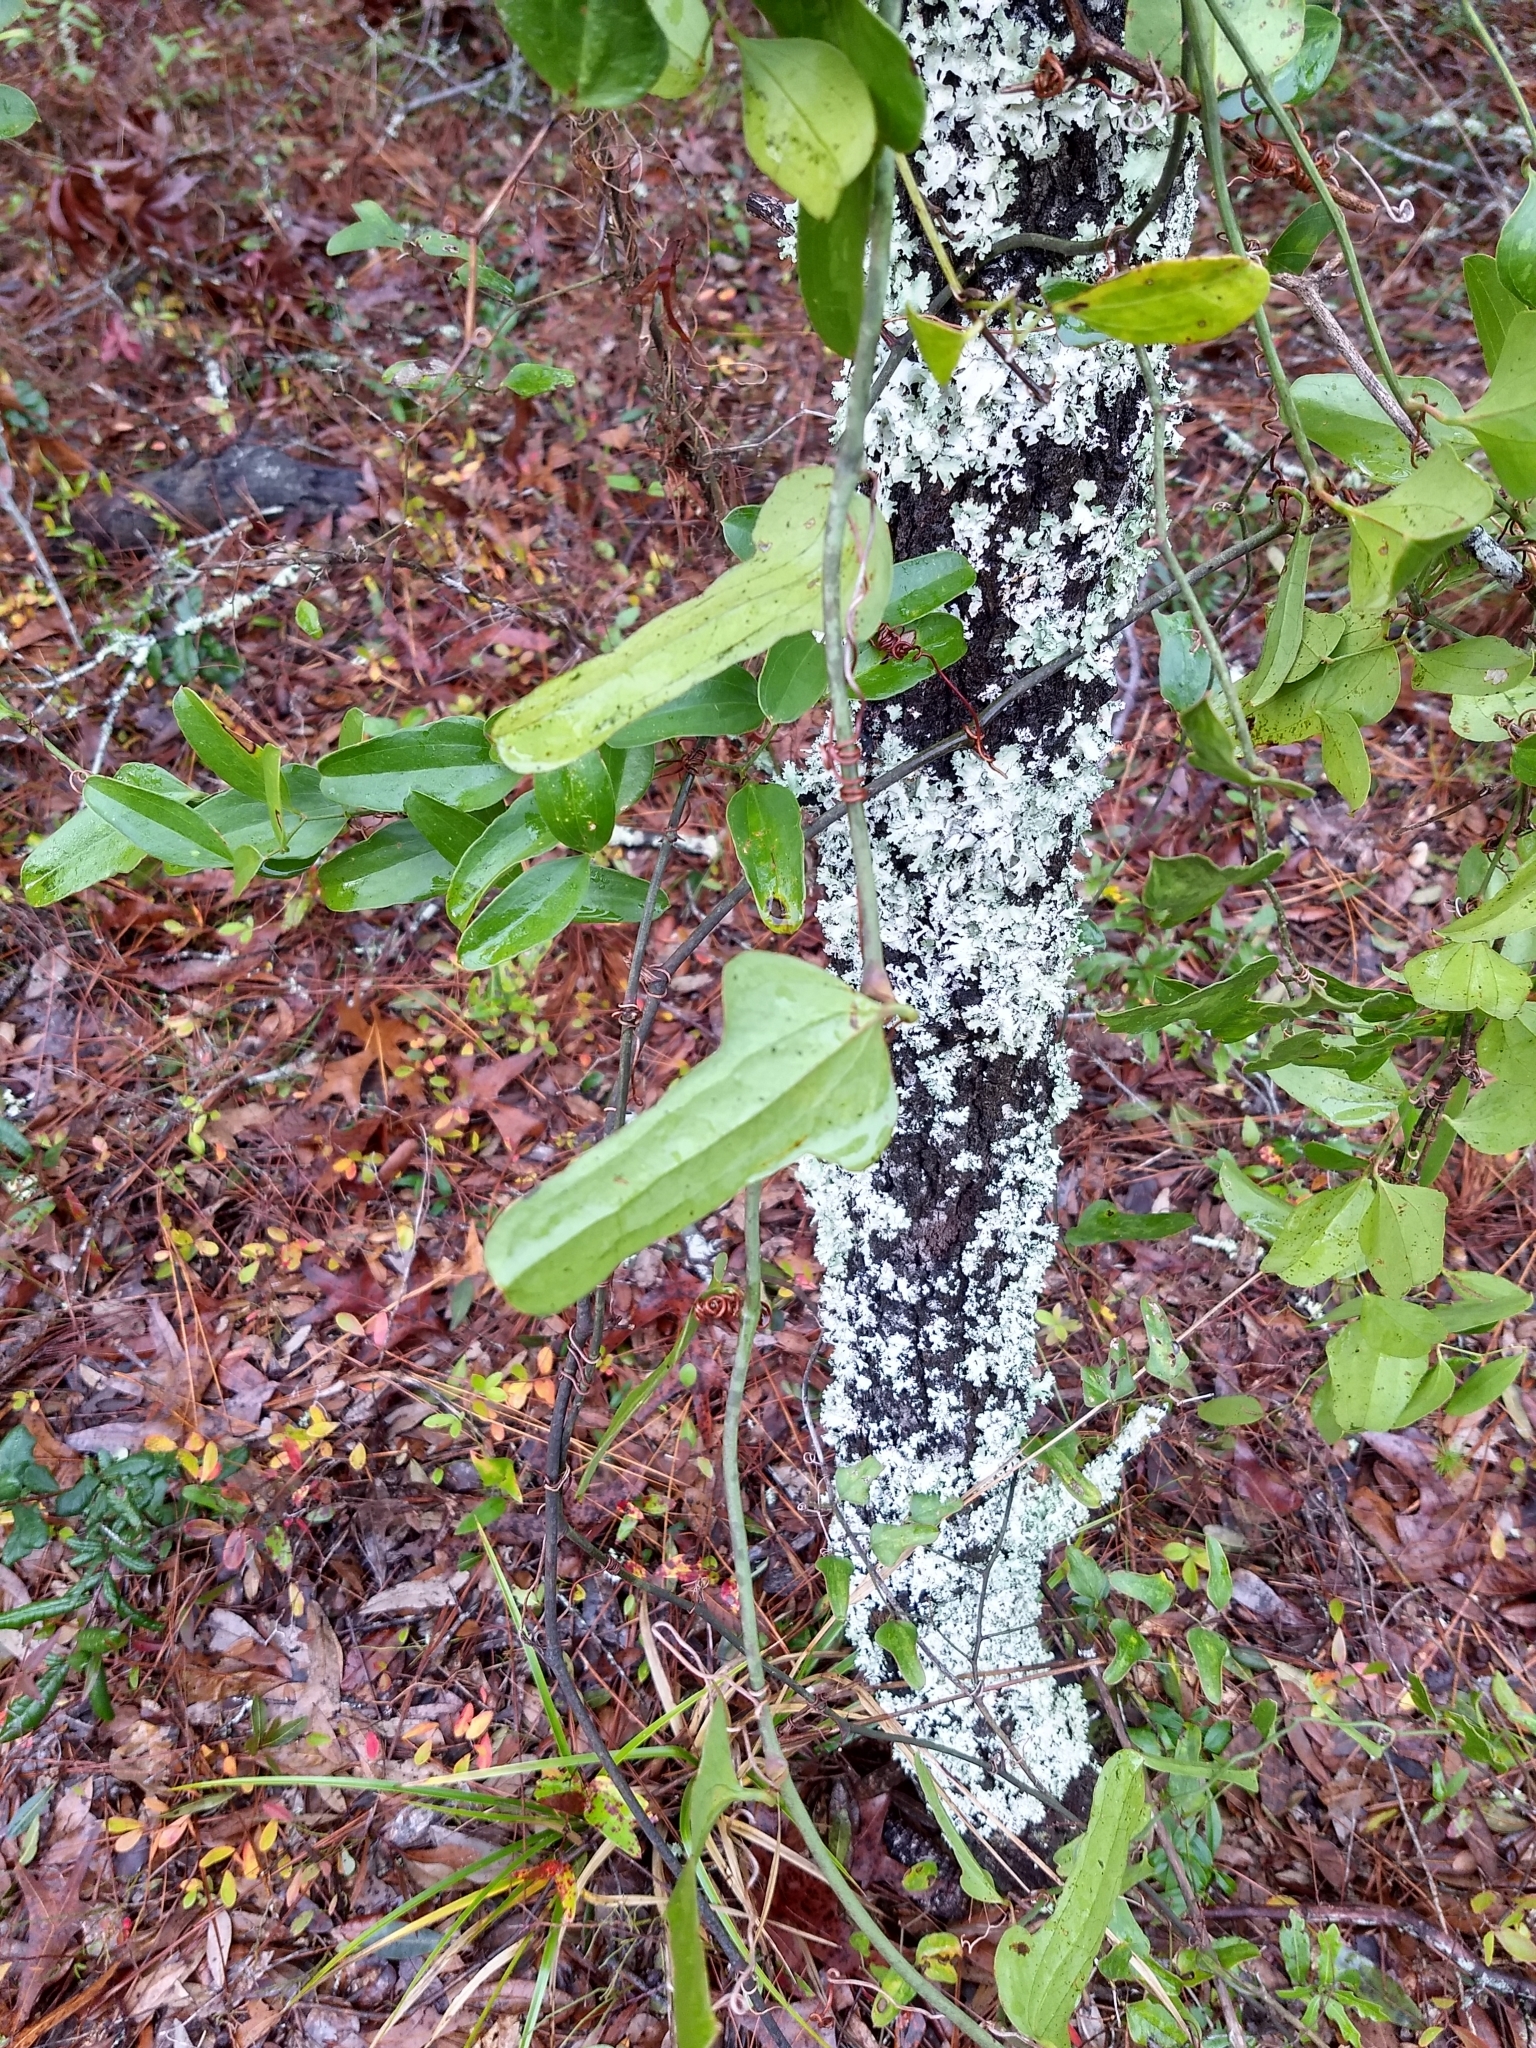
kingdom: Plantae
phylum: Tracheophyta
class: Liliopsida
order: Liliales
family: Smilacaceae
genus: Smilax
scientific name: Smilax auriculata
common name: Wild bamboo
